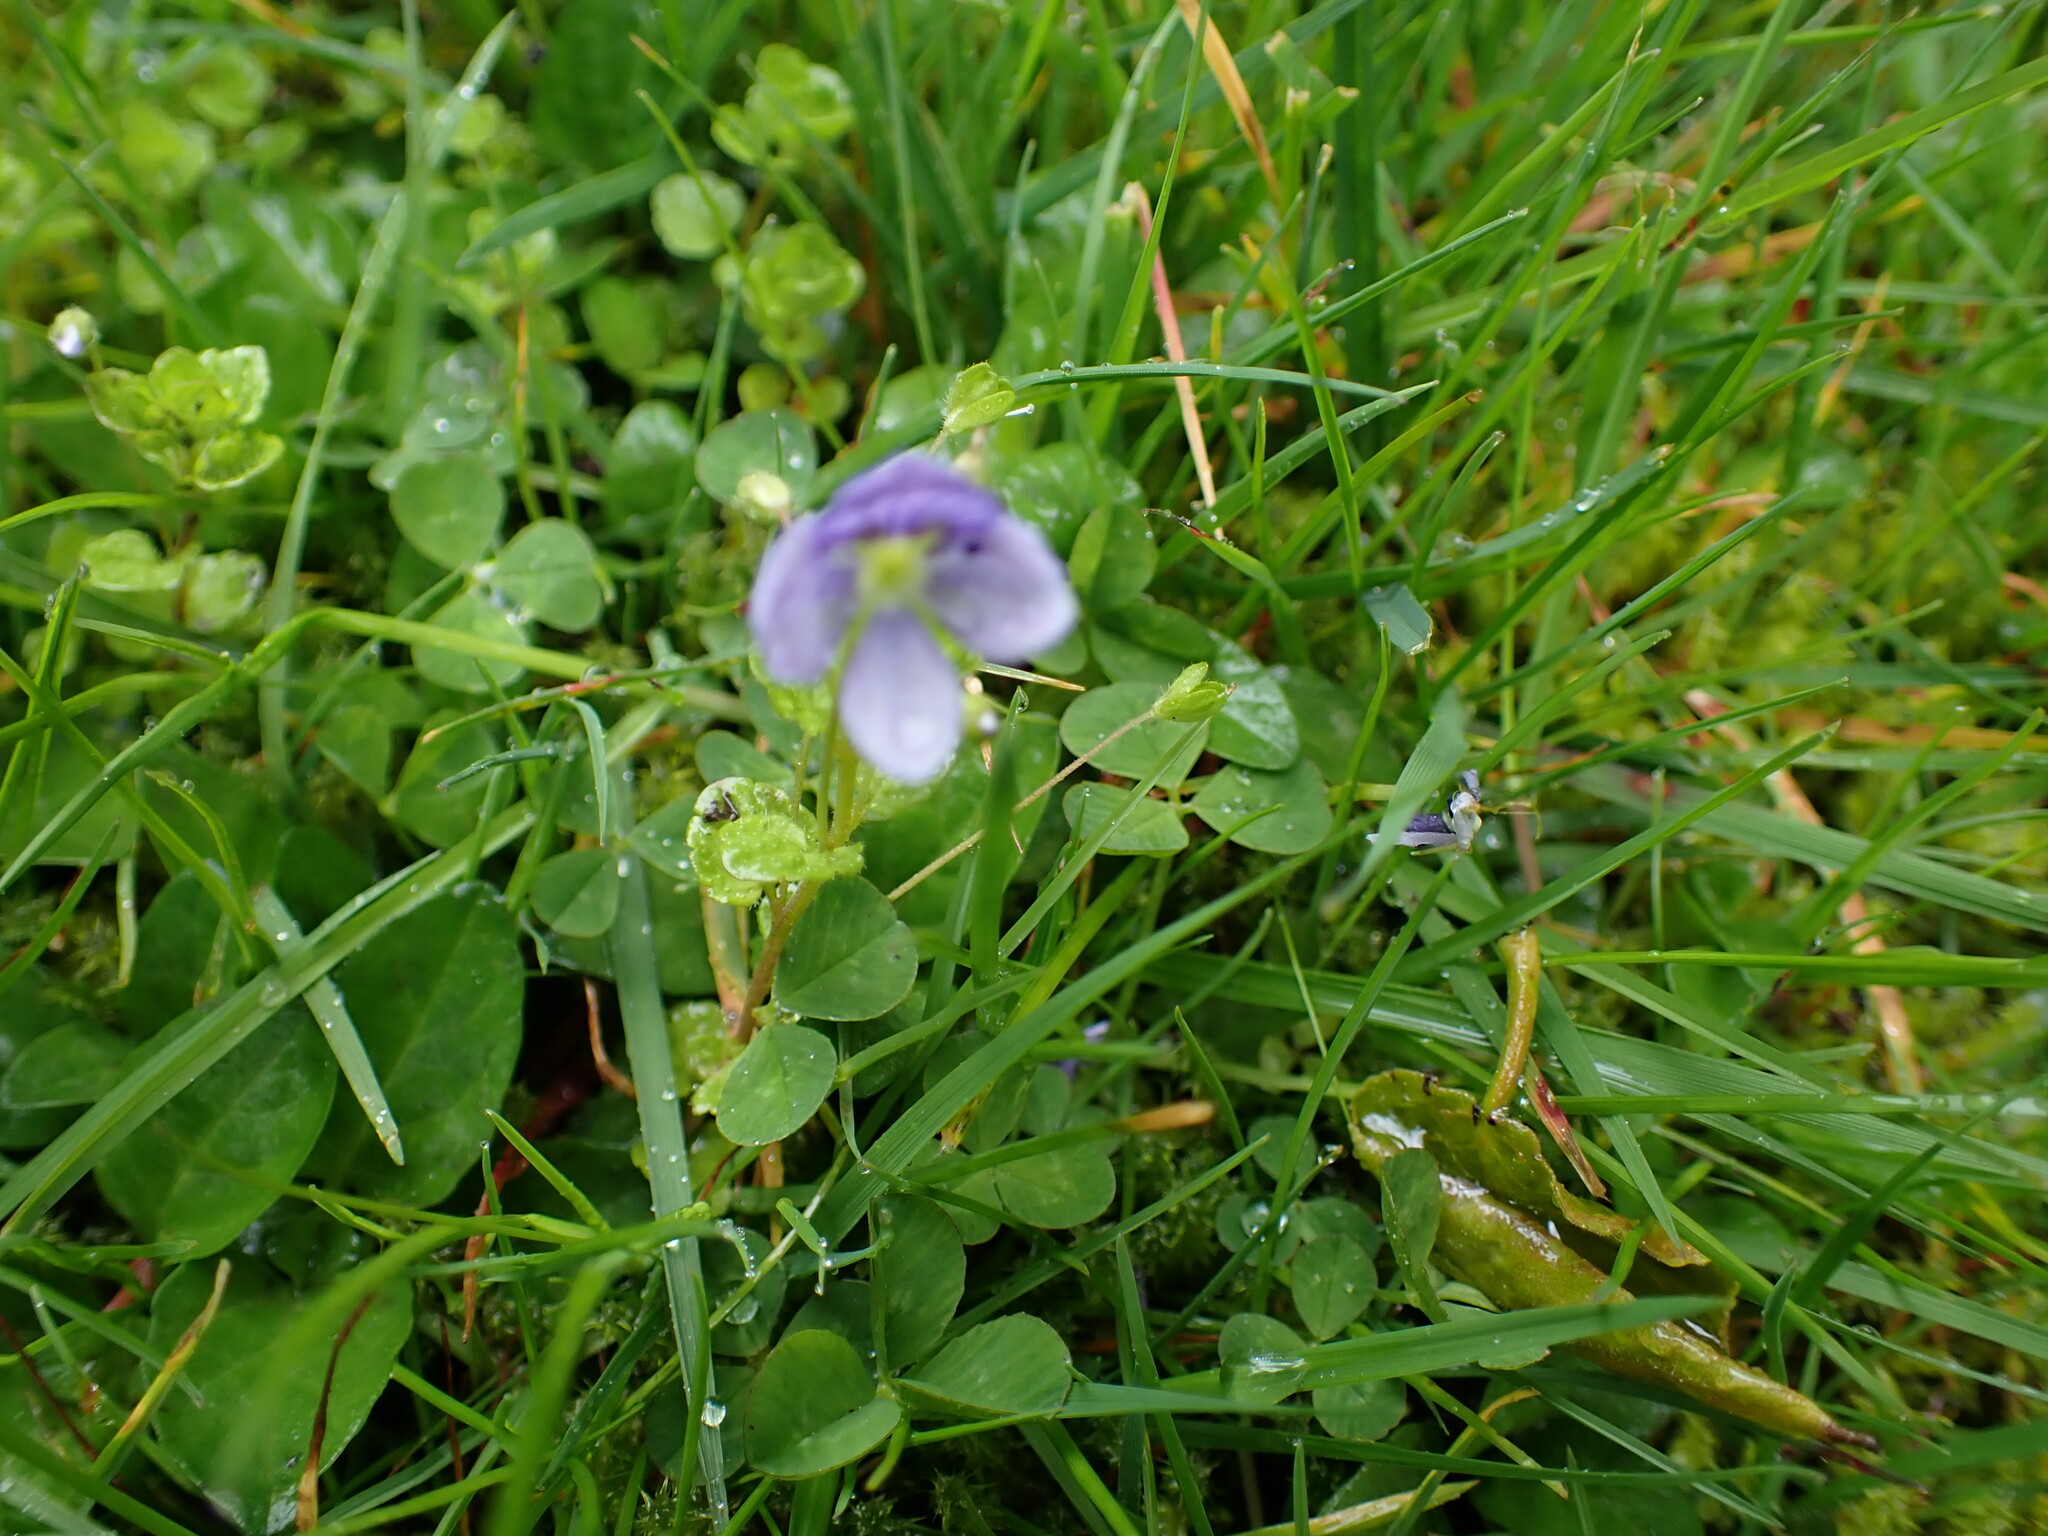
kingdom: Plantae
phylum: Tracheophyta
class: Magnoliopsida
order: Lamiales
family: Plantaginaceae
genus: Veronica
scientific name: Veronica filiformis
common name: Slender speedwell
